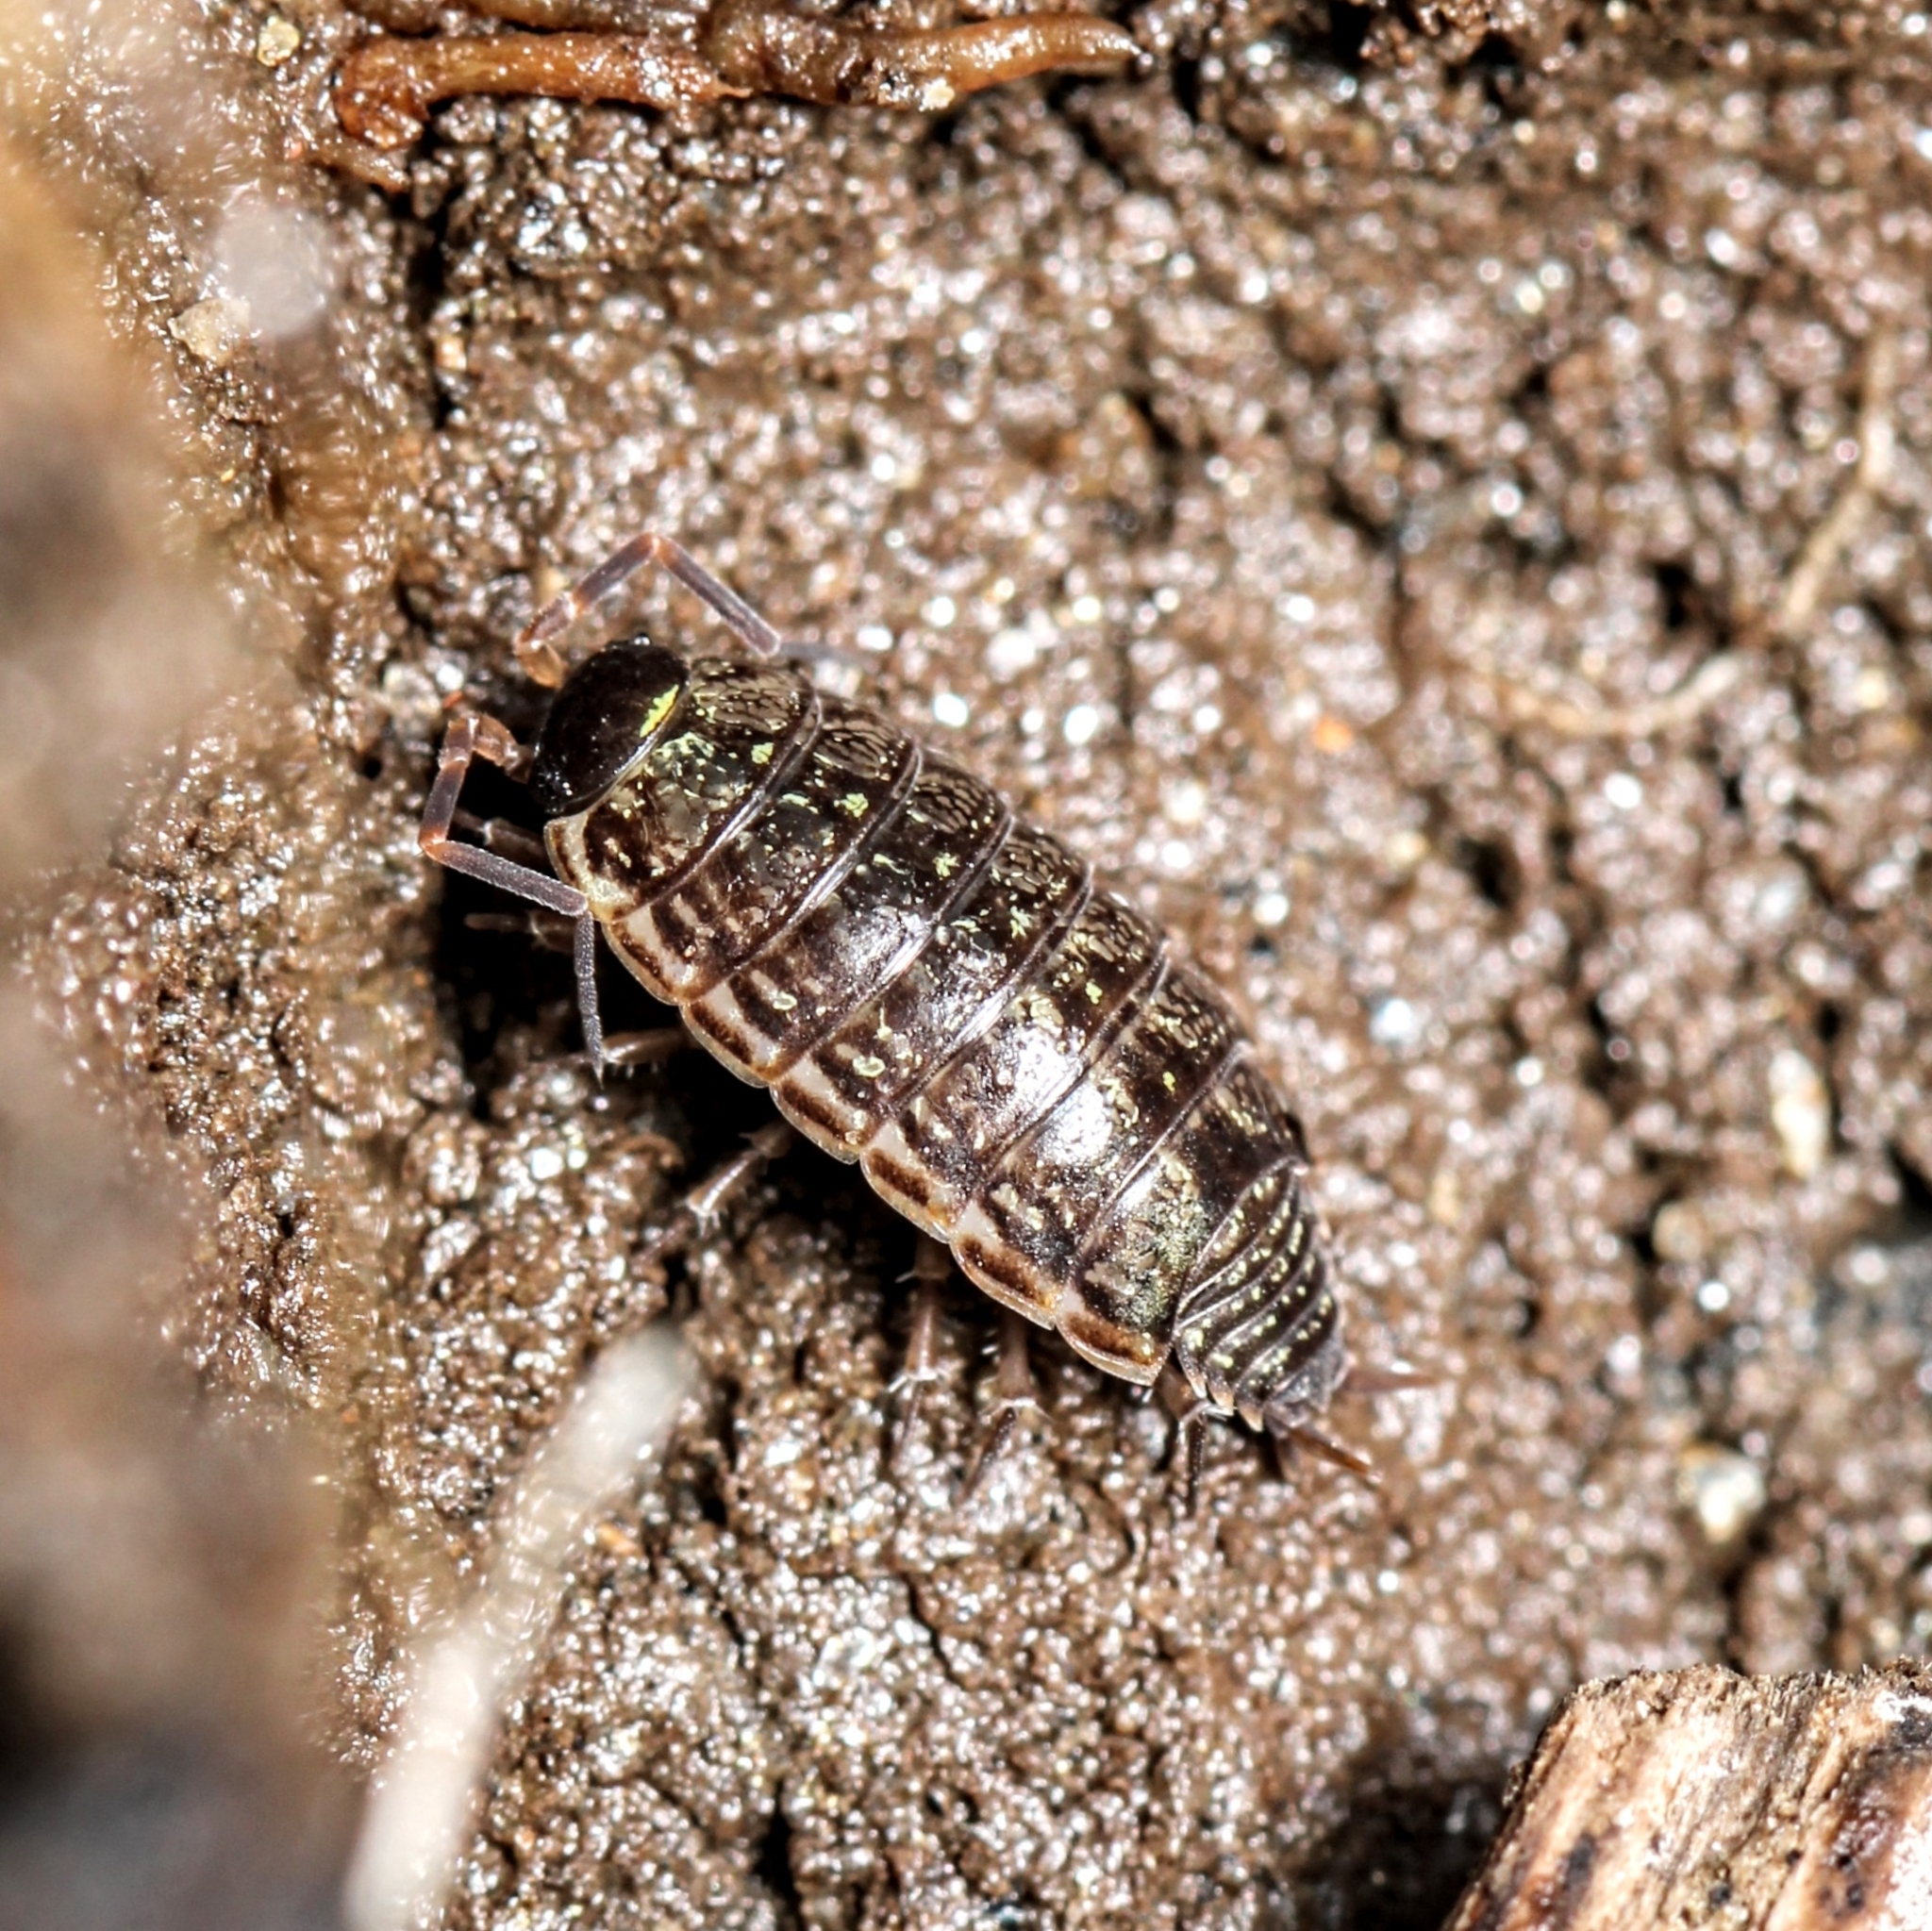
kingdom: Animalia
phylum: Arthropoda
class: Malacostraca
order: Isopoda
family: Philosciidae
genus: Philoscia
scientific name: Philoscia muscorum
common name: Common striped woodlouse
